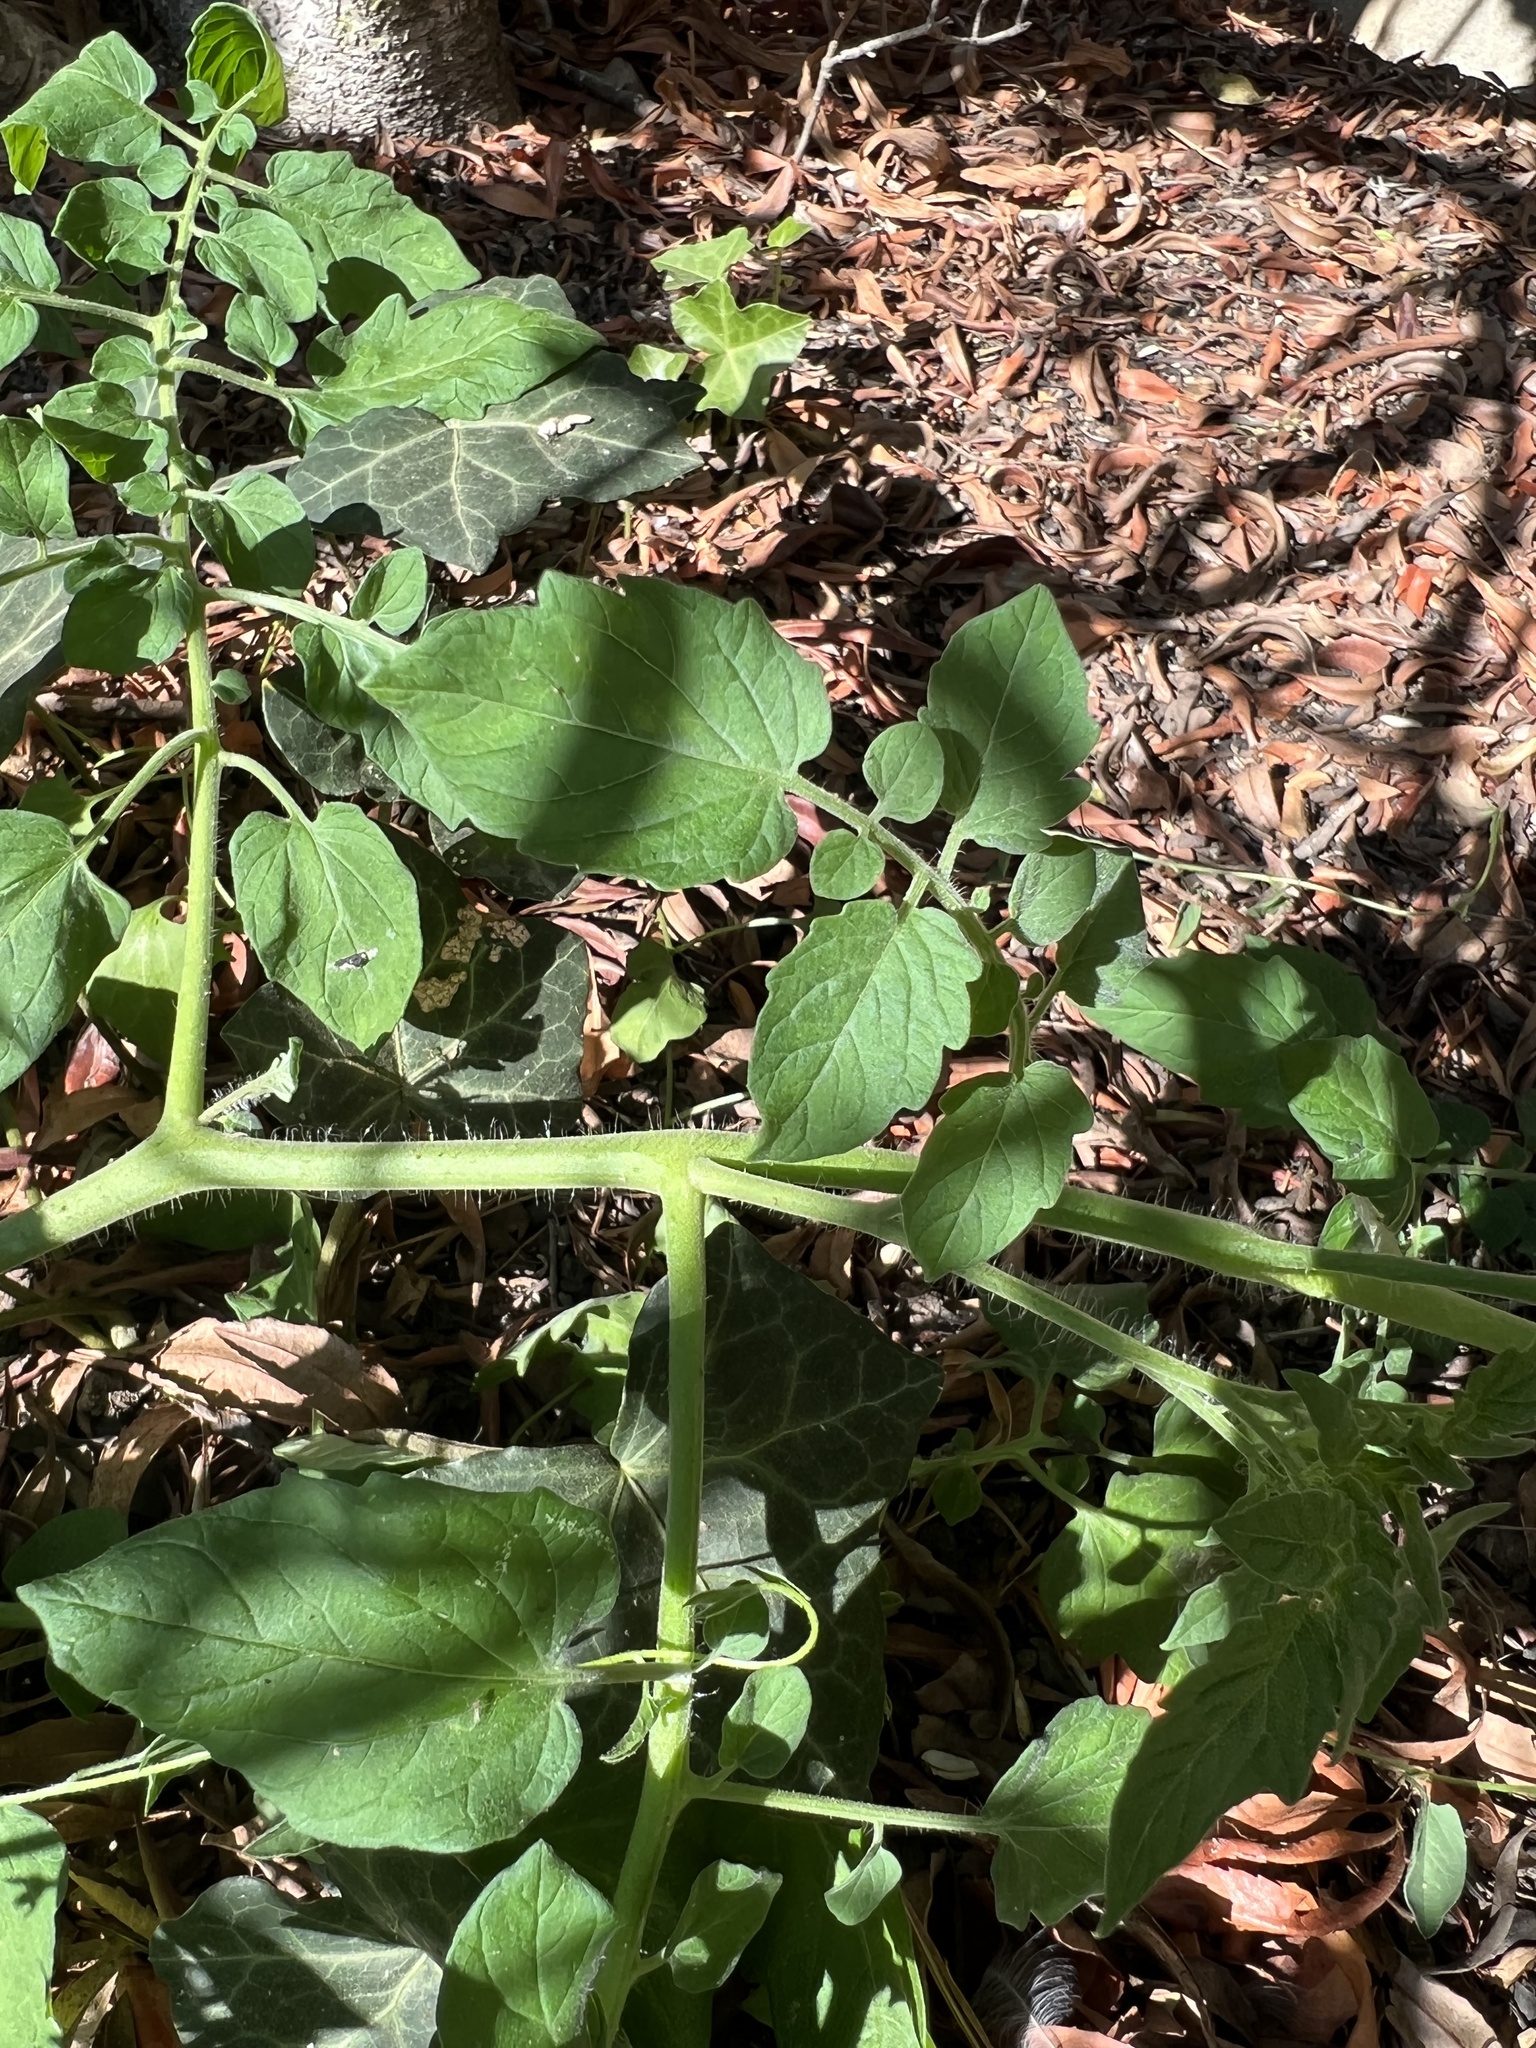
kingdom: Plantae
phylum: Tracheophyta
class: Magnoliopsida
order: Solanales
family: Solanaceae
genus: Solanum
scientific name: Solanum lycopersicum
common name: Garden tomato
